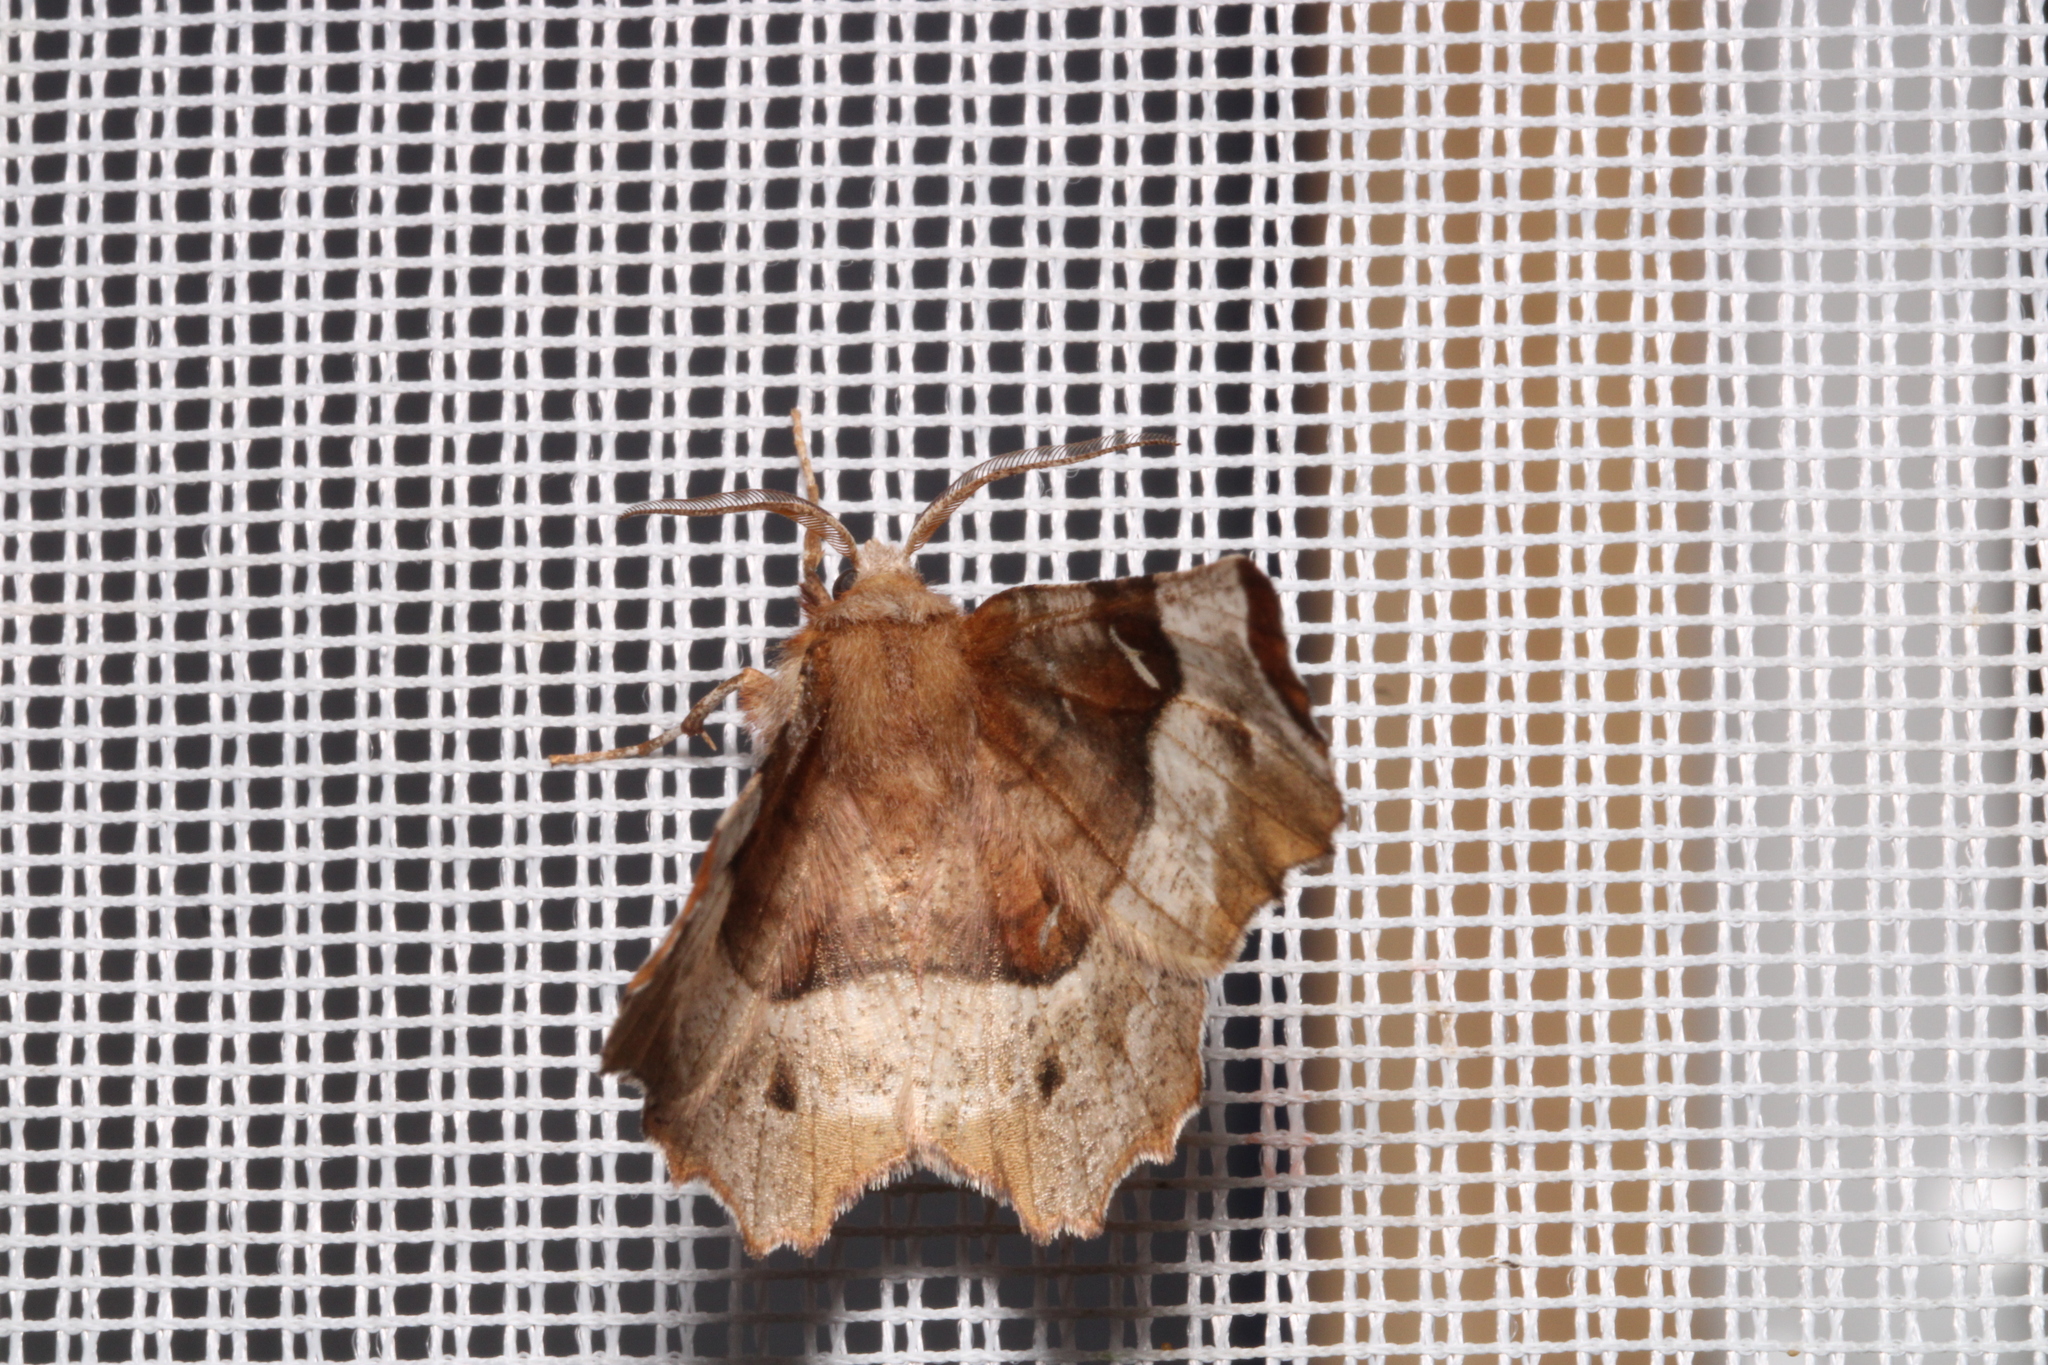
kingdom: Animalia
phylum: Arthropoda
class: Insecta
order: Lepidoptera
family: Geometridae
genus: Selenia
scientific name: Selenia tetralunaria
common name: Purple thorn
